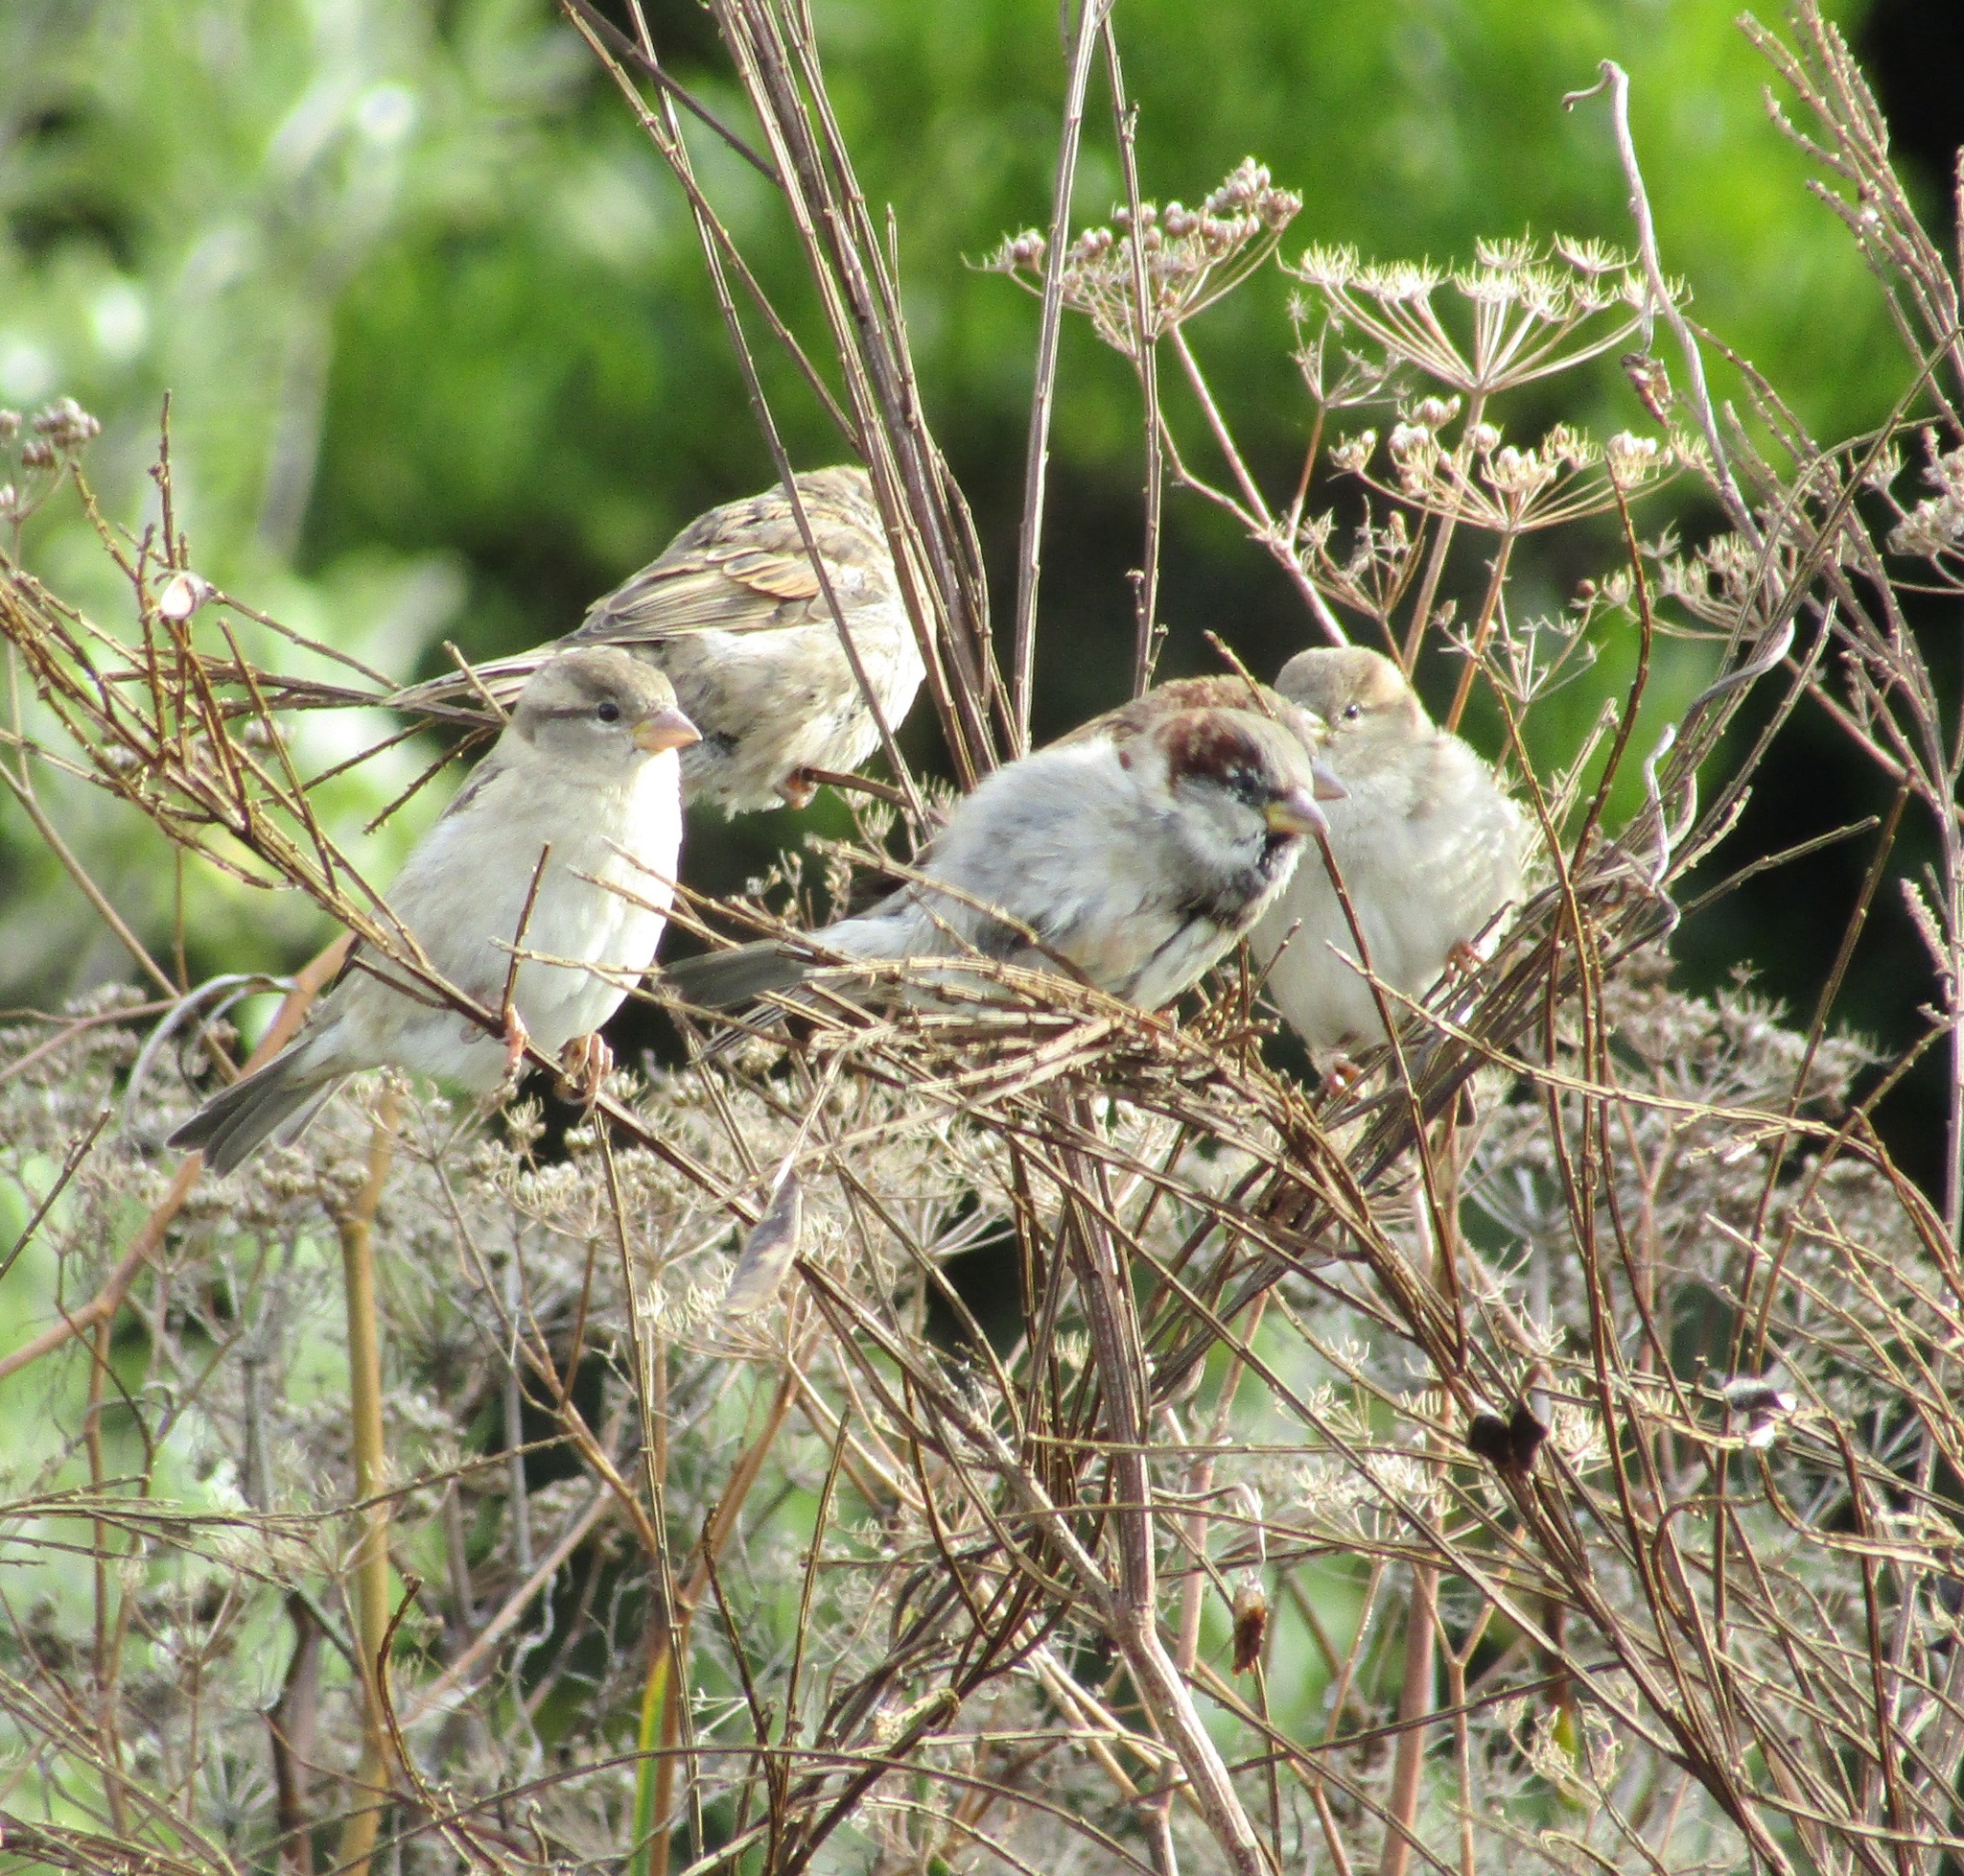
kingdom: Animalia
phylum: Chordata
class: Aves
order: Passeriformes
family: Passeridae
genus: Passer
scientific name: Passer domesticus
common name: House sparrow
